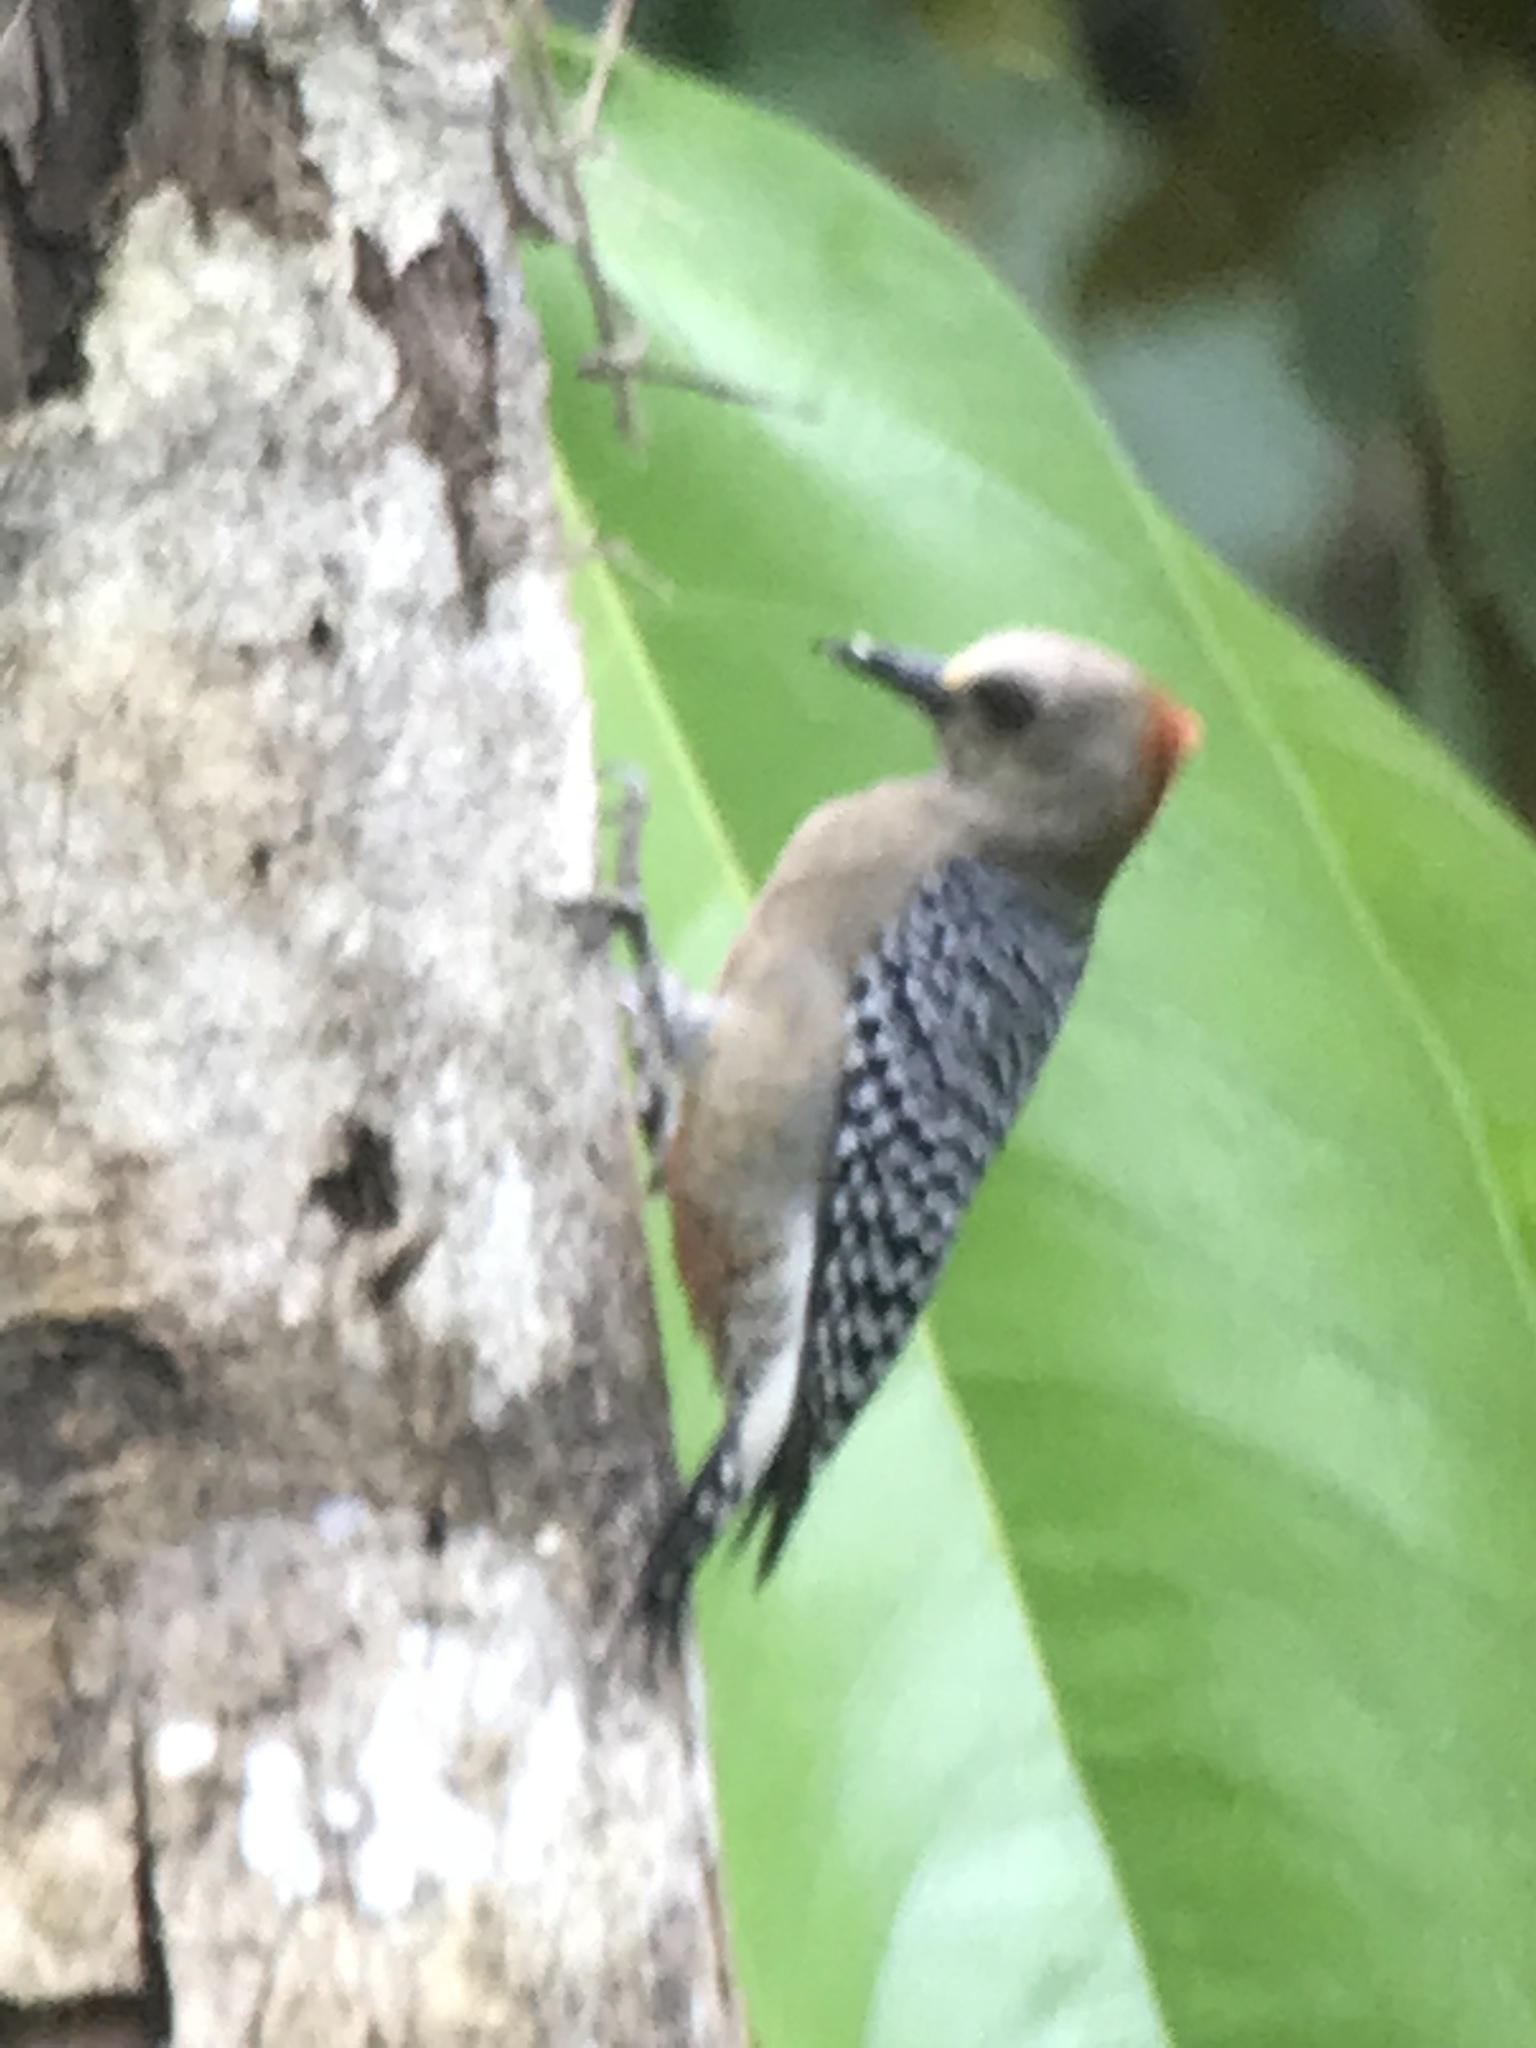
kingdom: Animalia
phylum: Chordata
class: Aves
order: Piciformes
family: Picidae
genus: Melanerpes
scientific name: Melanerpes rubricapillus
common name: Red-crowned woodpecker
